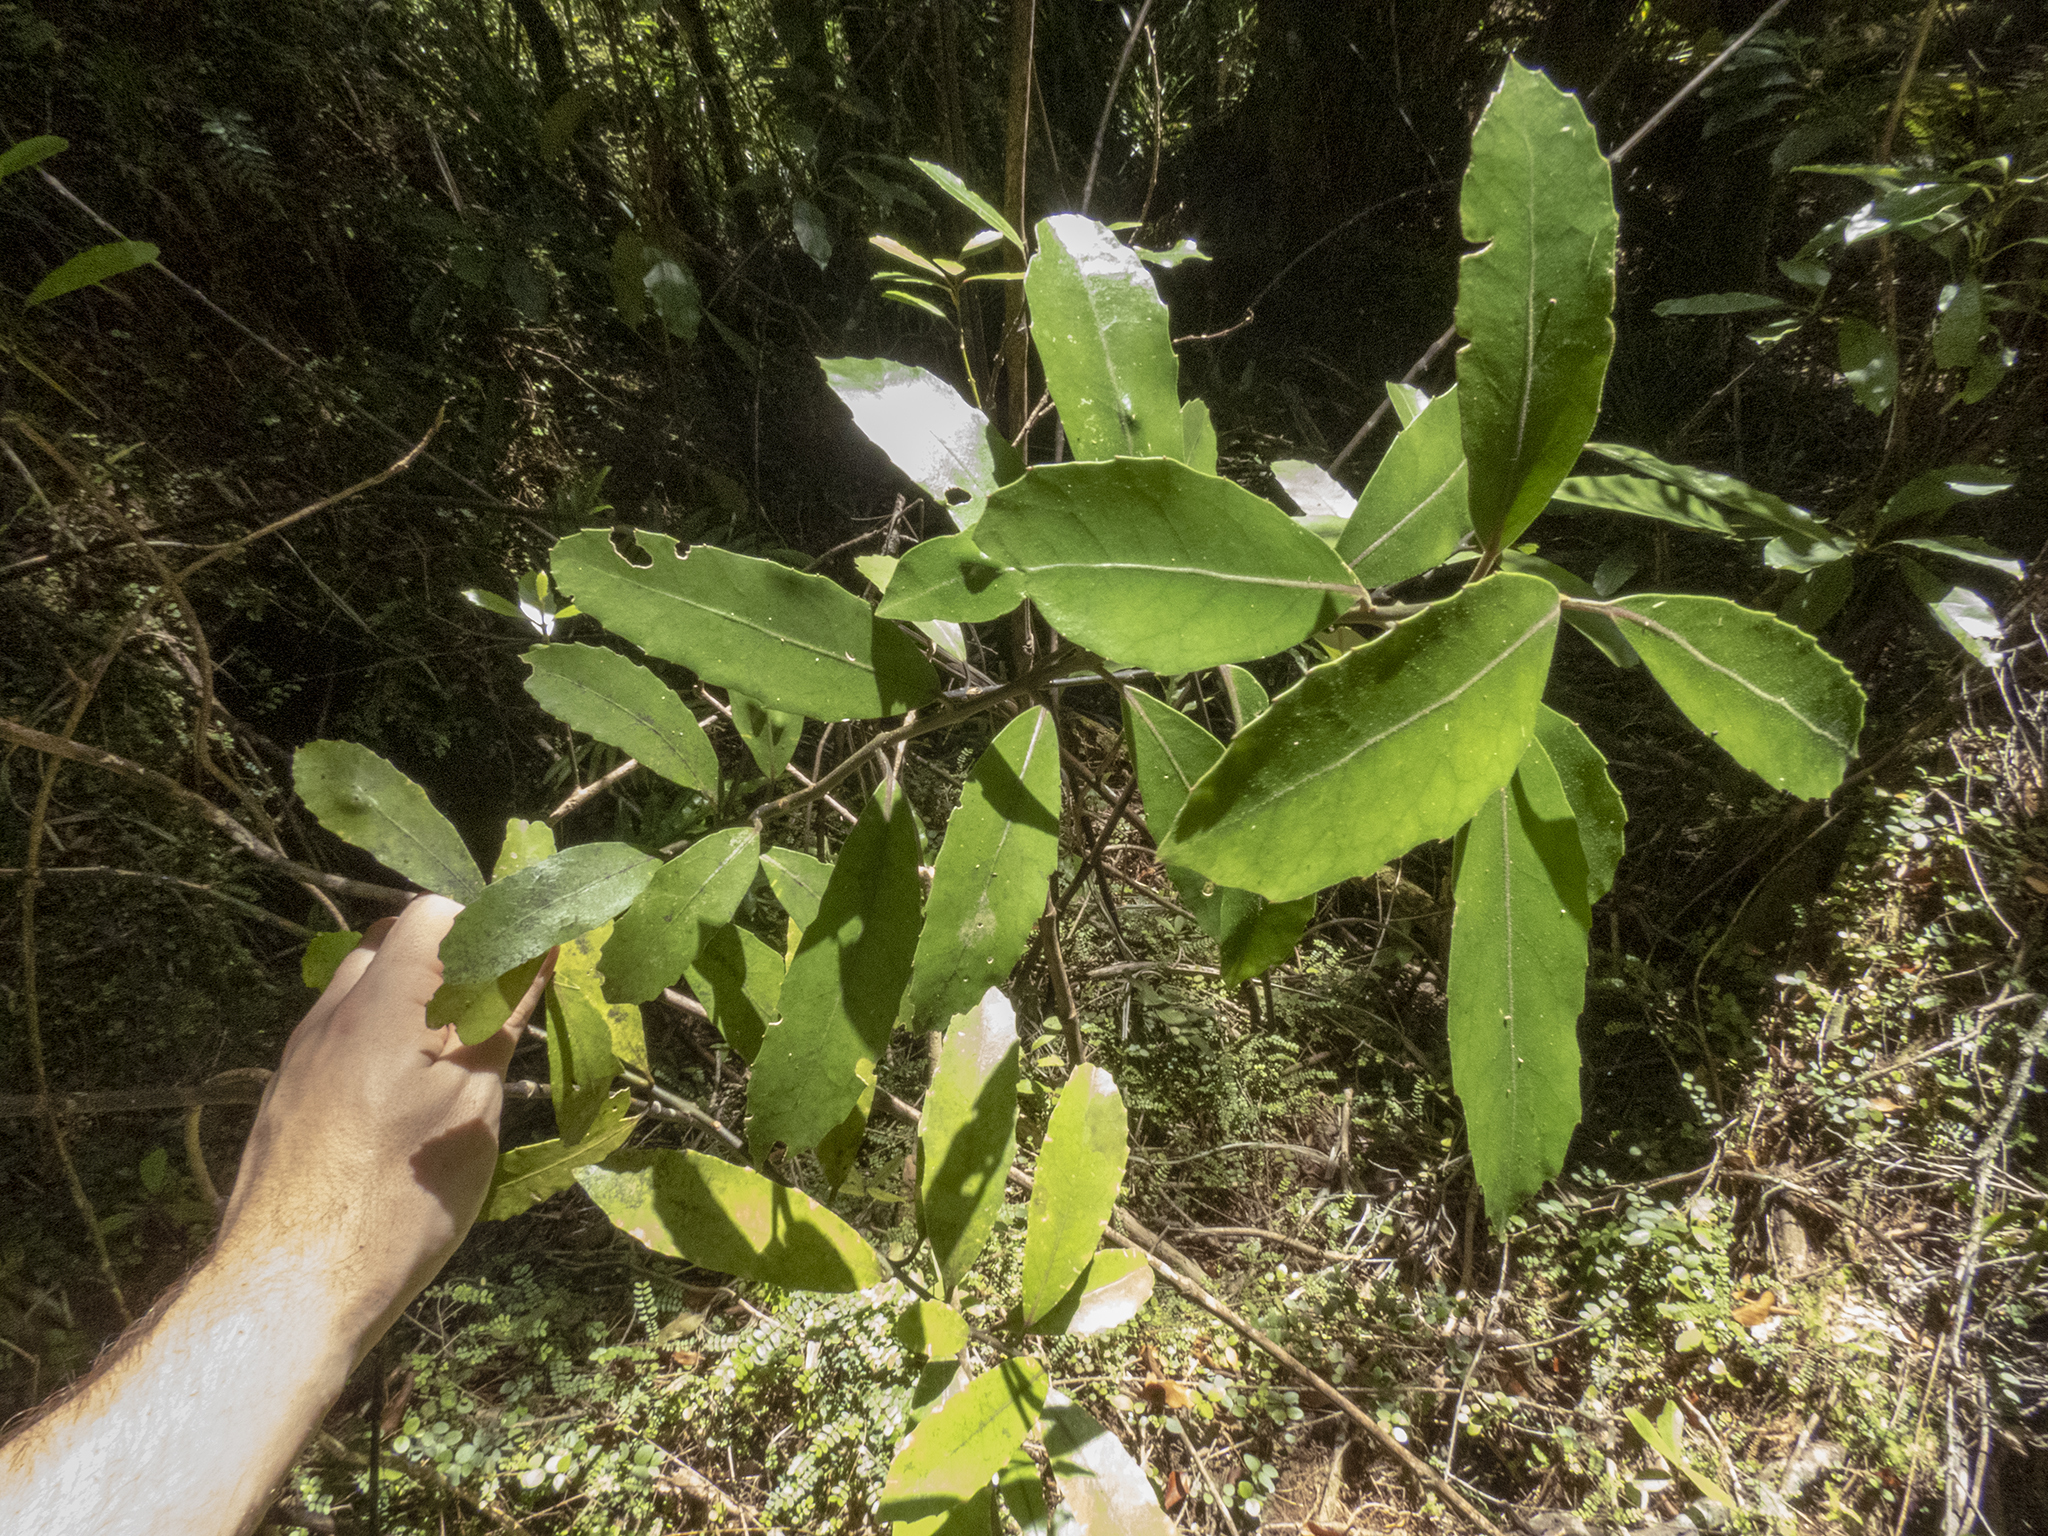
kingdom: Plantae
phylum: Tracheophyta
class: Magnoliopsida
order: Laurales
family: Monimiaceae
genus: Hedycarya
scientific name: Hedycarya arborea
